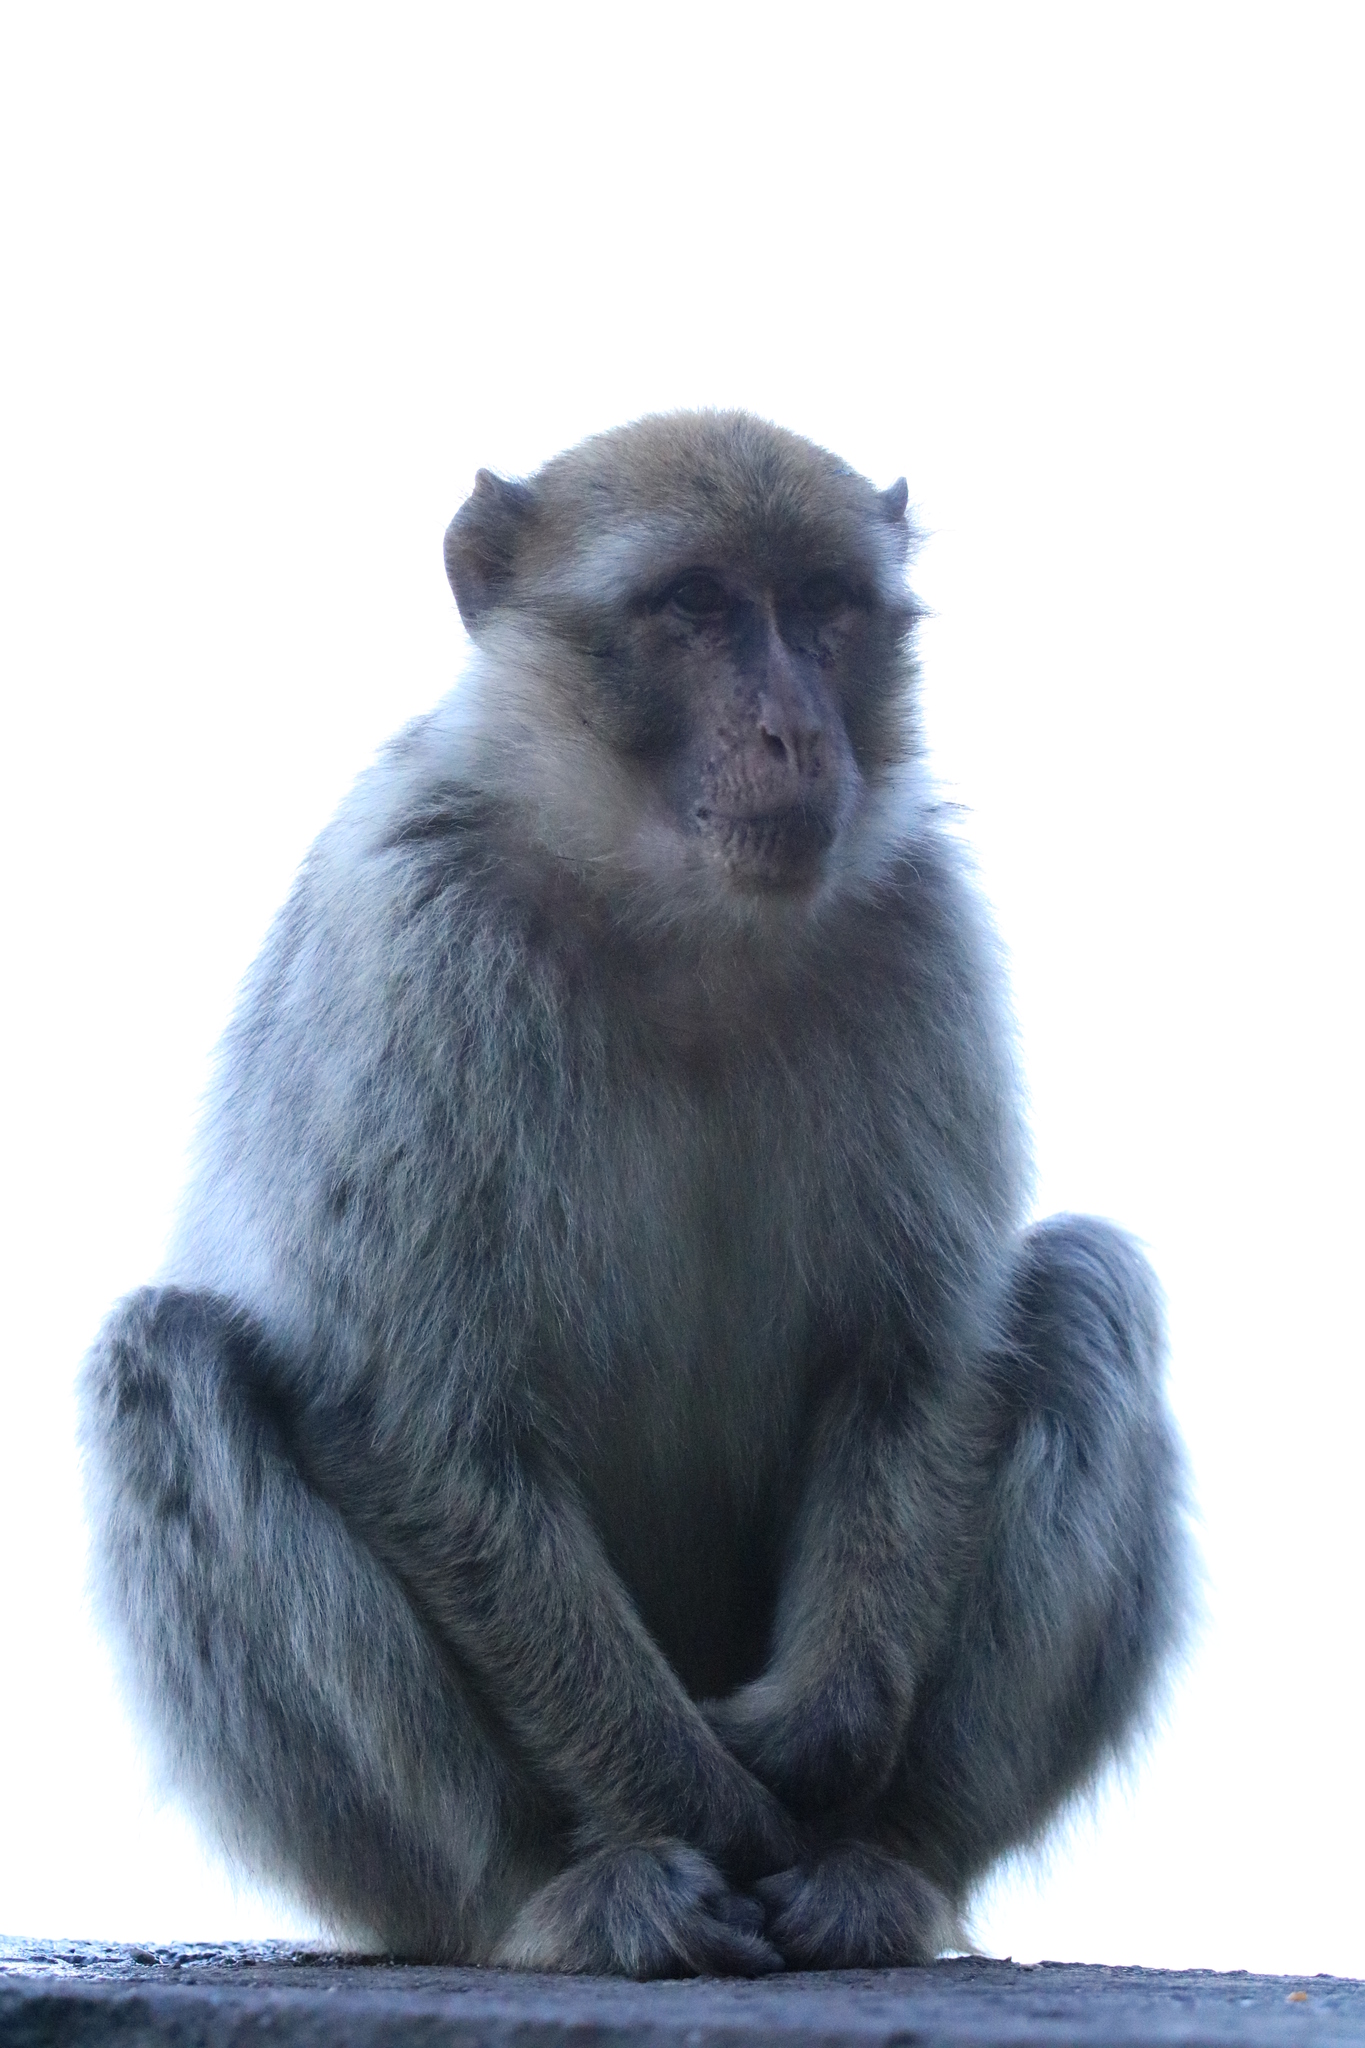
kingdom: Animalia
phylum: Chordata
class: Mammalia
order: Primates
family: Cercopithecidae
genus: Macaca
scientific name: Macaca sylvanus
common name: Barbary macaque
